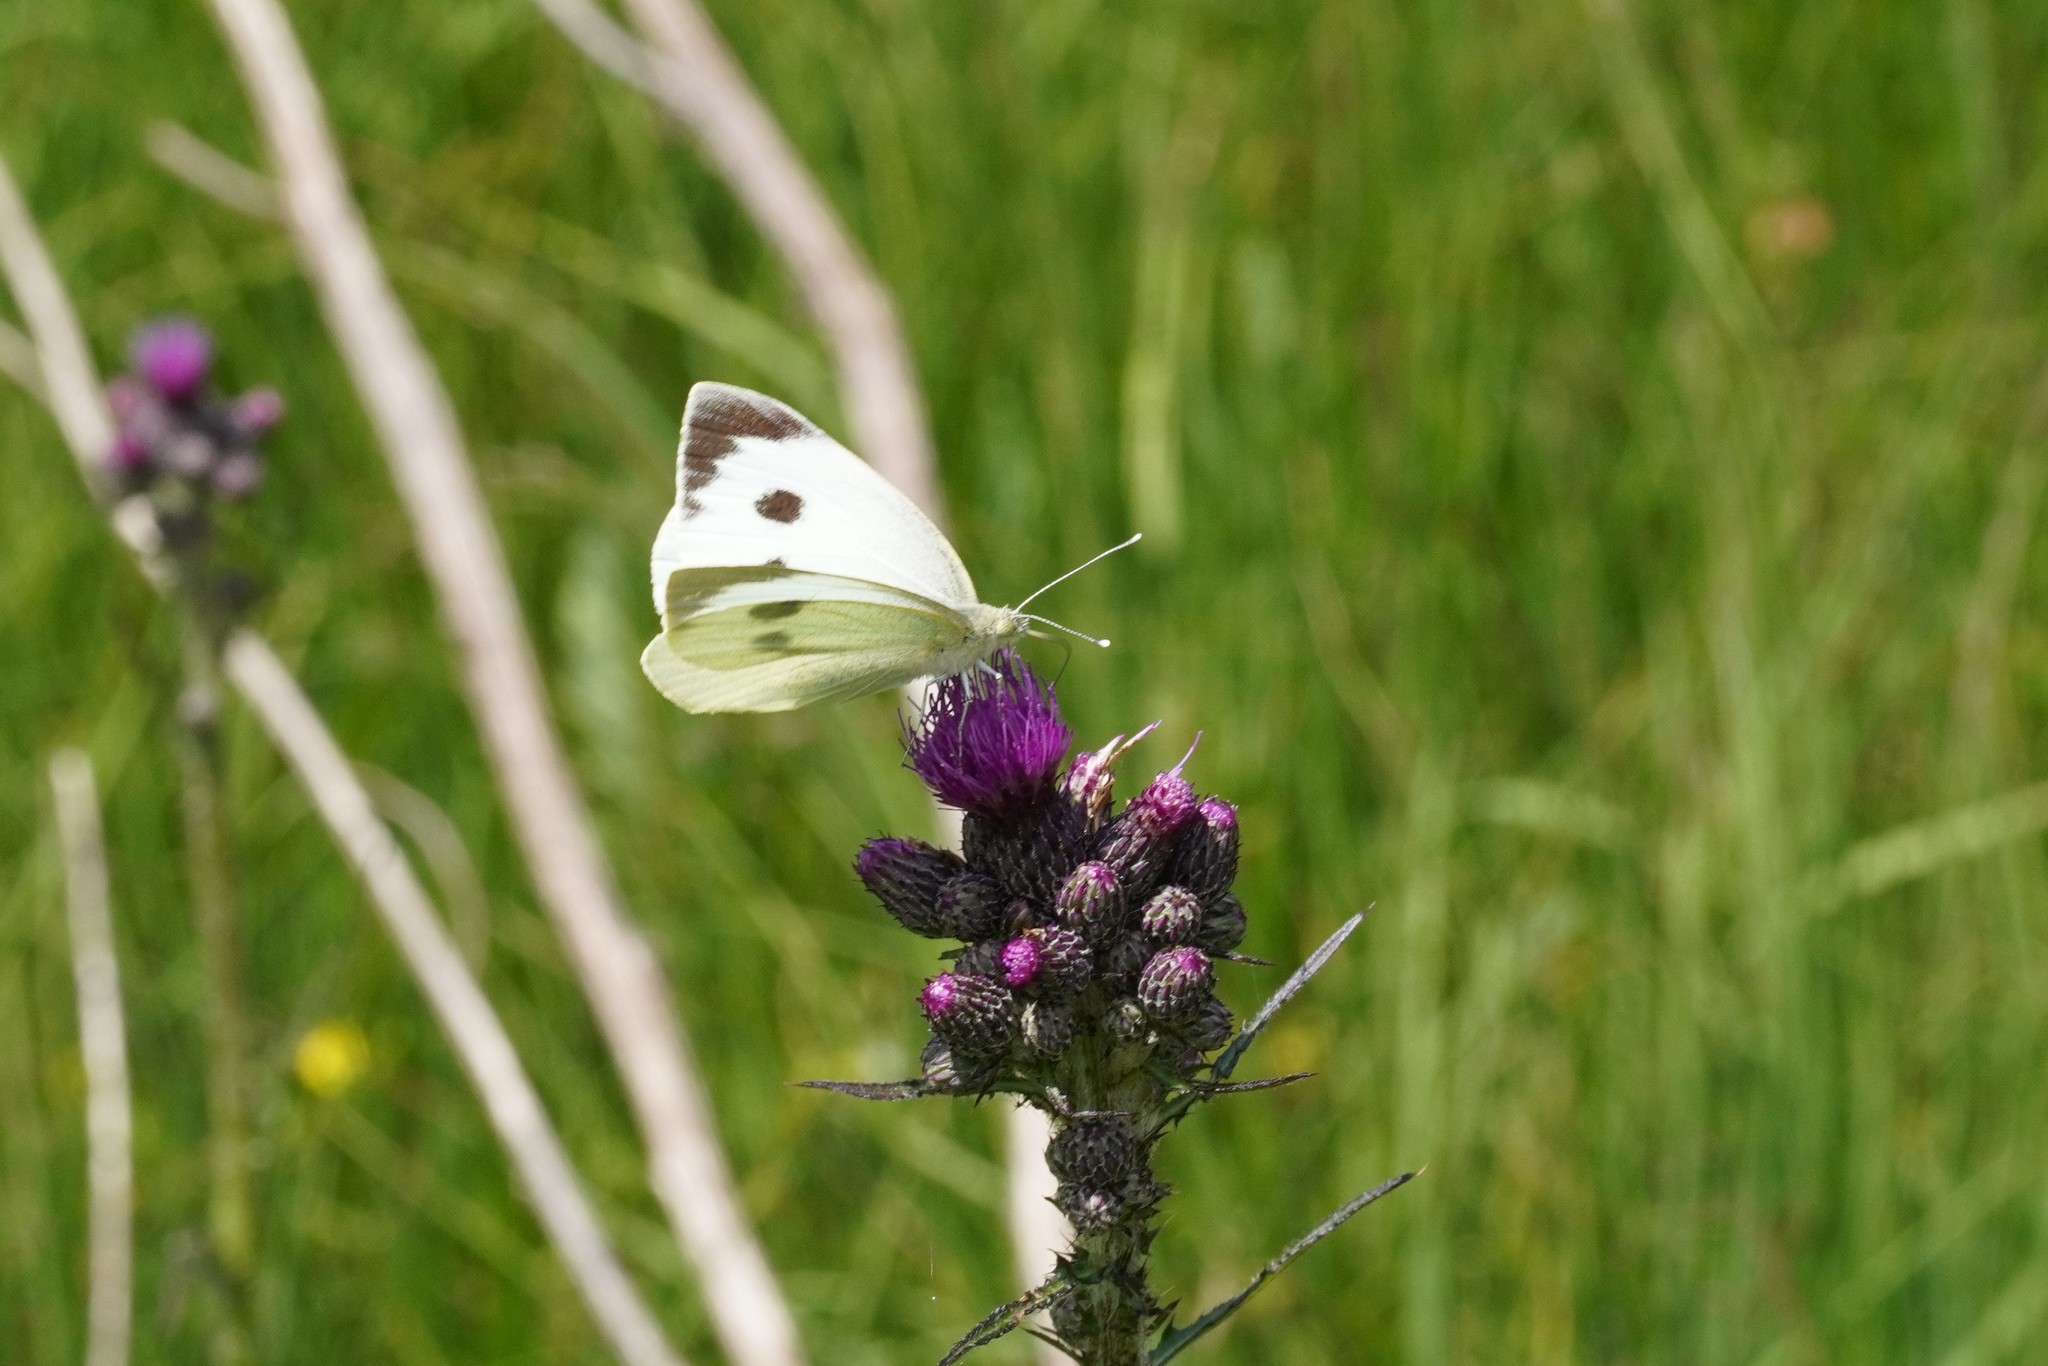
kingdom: Animalia
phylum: Arthropoda
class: Insecta
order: Lepidoptera
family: Pieridae
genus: Pieris
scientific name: Pieris brassicae
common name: Large white
